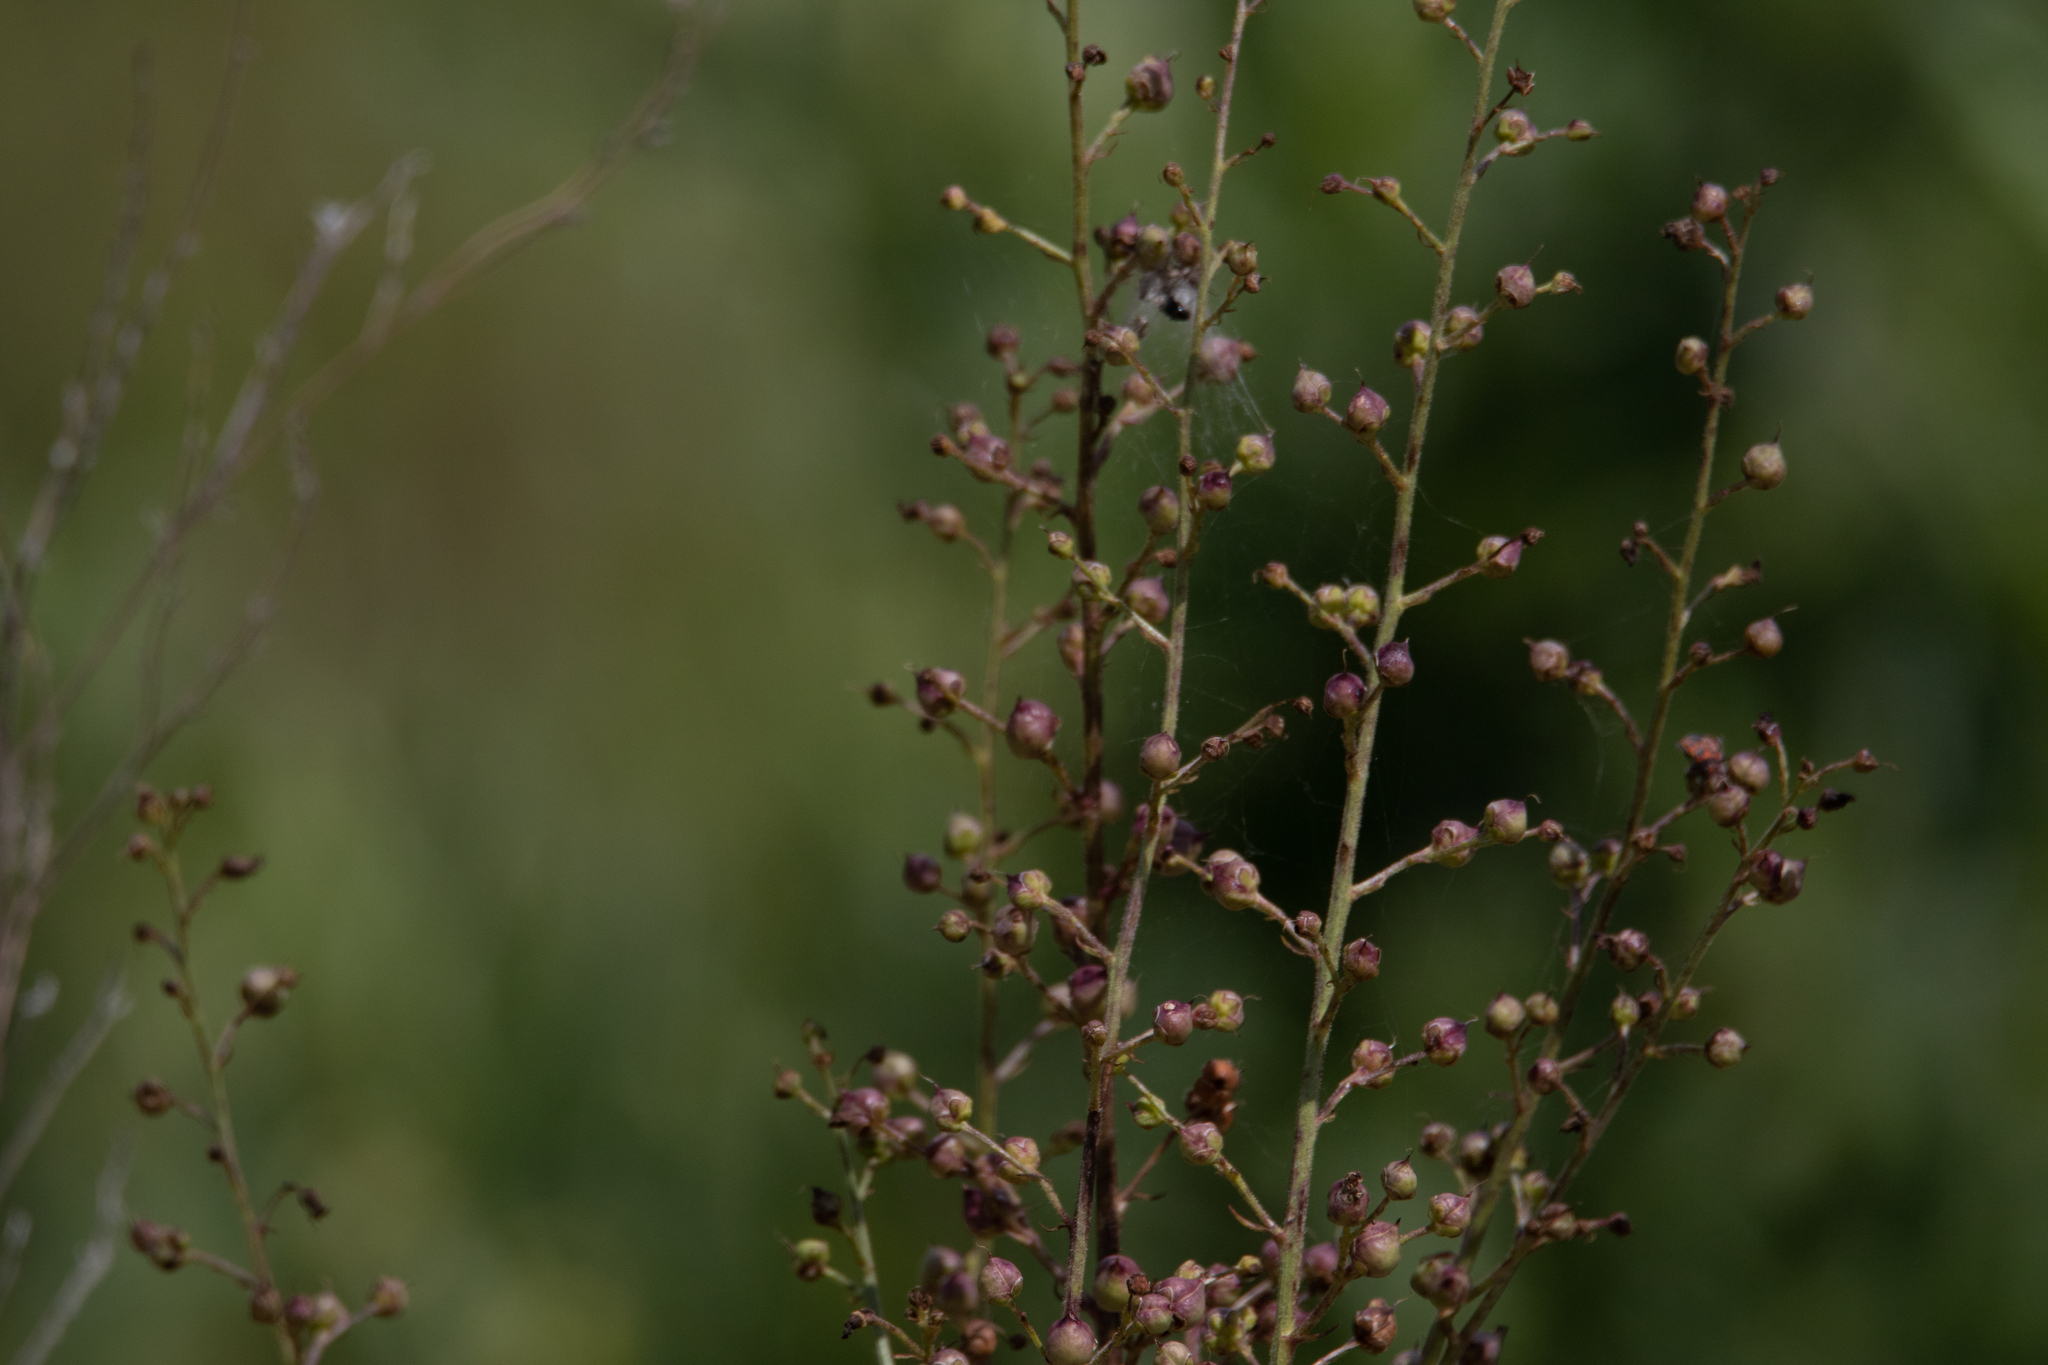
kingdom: Plantae
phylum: Tracheophyta
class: Magnoliopsida
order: Lamiales
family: Scrophulariaceae
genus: Scrophularia
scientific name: Scrophularia nodosa
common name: Common figwort
